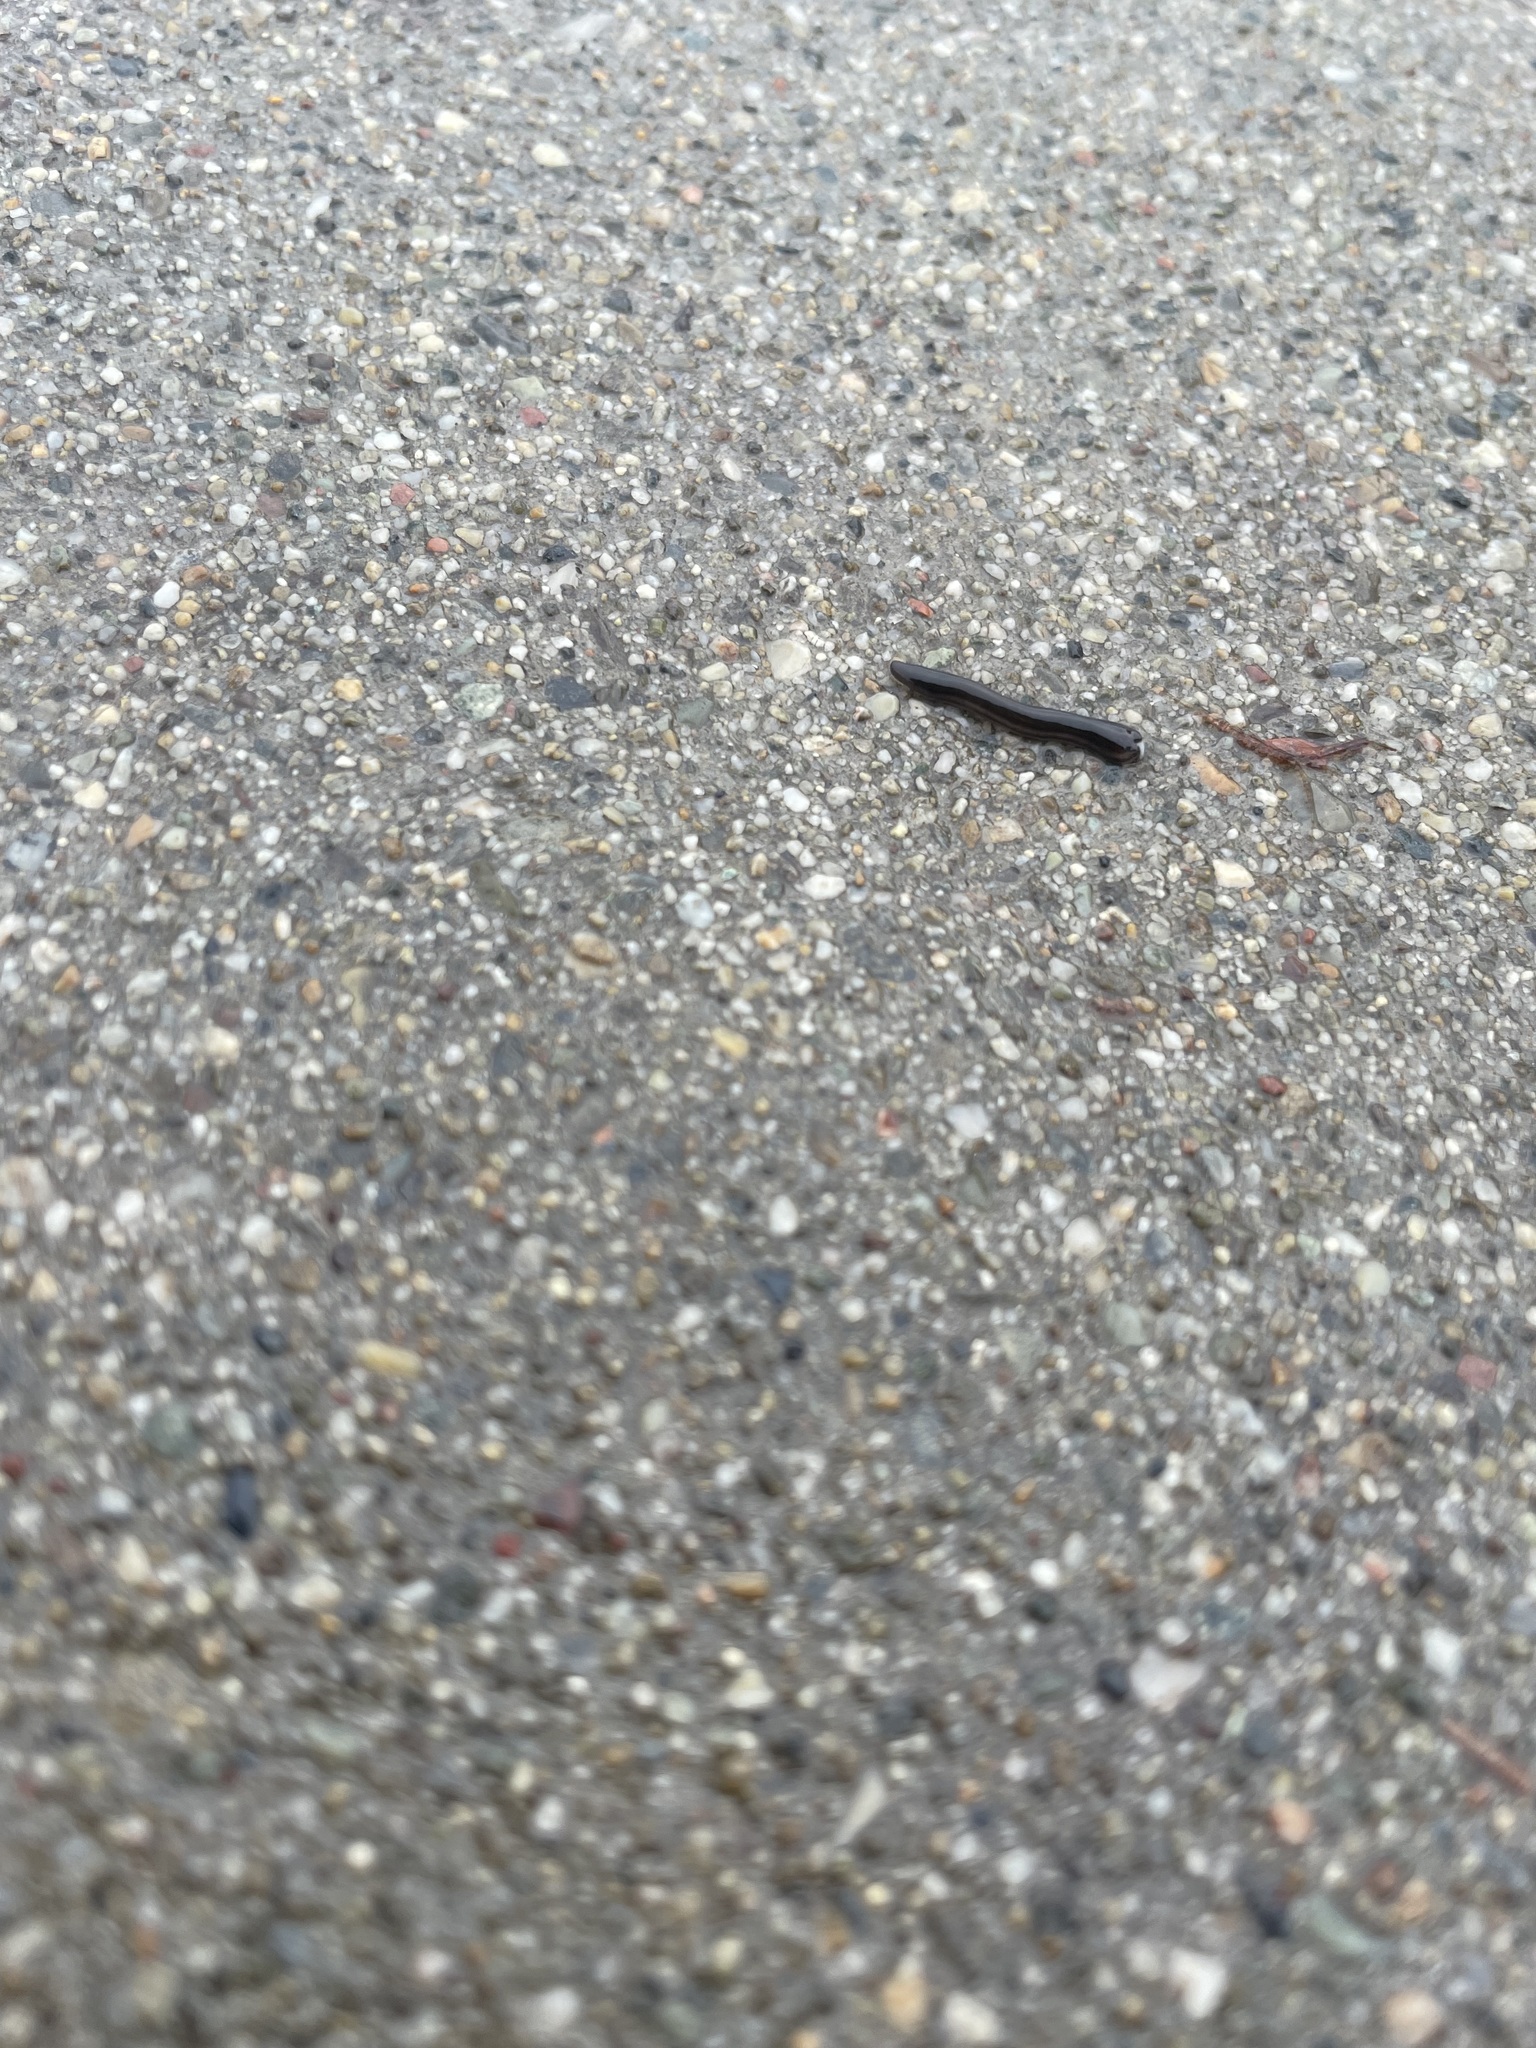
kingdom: Animalia
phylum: Platyhelminthes
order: Tricladida
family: Geoplanidae
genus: Parakontikia
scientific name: Parakontikia ventrolineata
